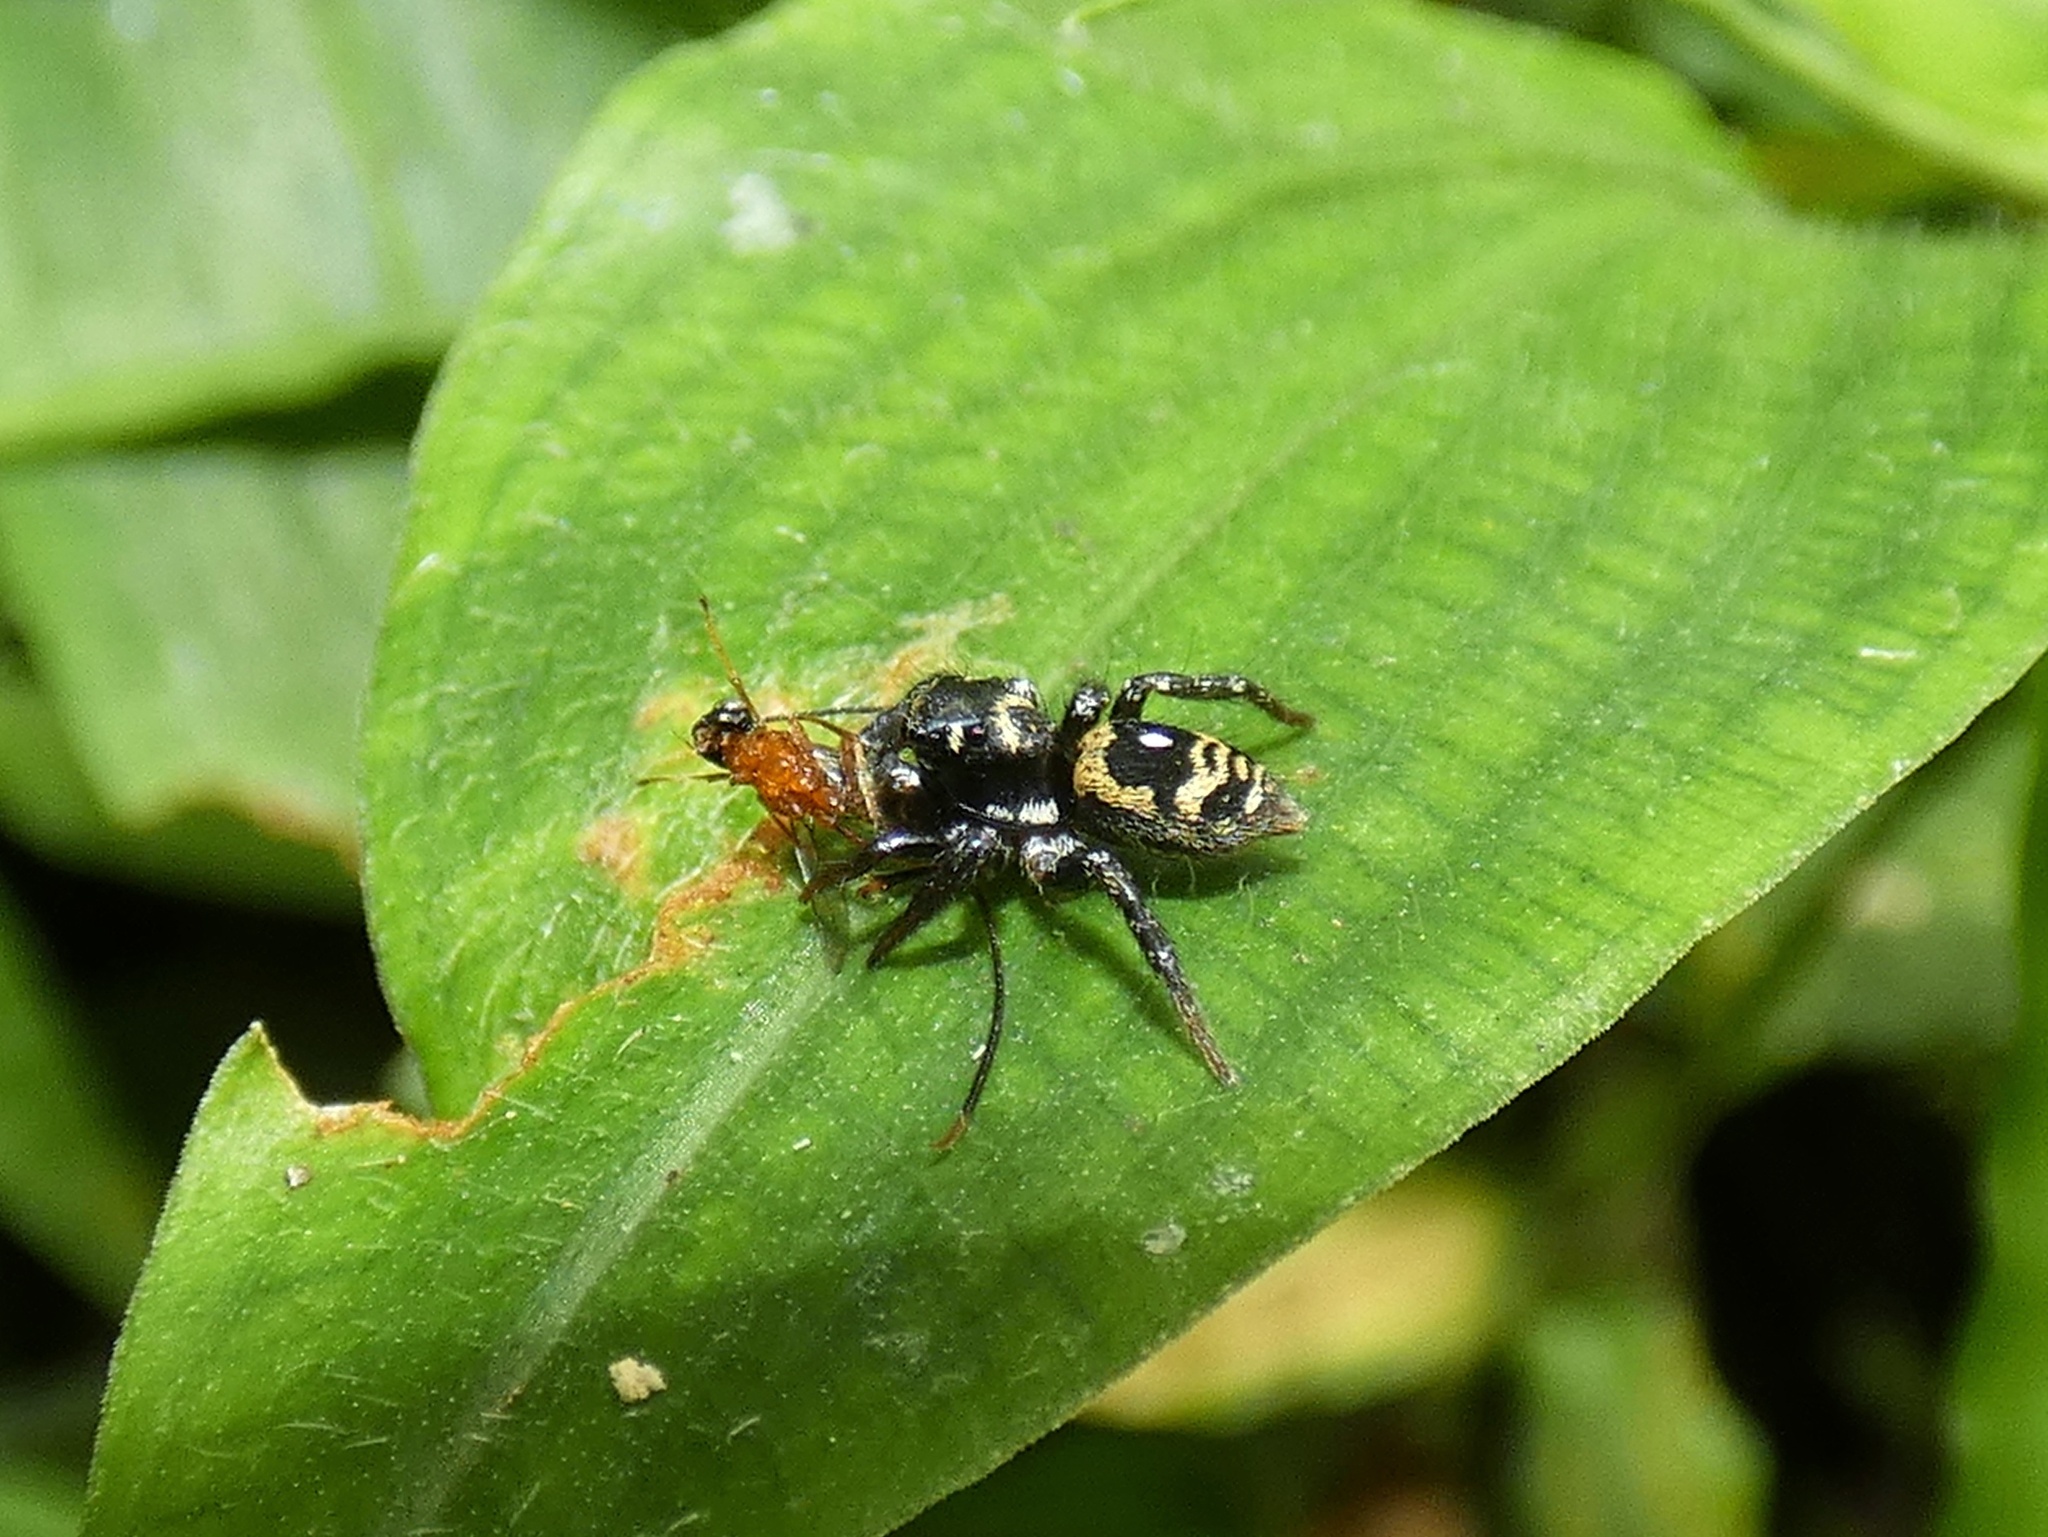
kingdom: Animalia
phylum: Arthropoda
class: Arachnida
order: Araneae
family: Salticidae
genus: Corythalia
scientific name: Corythalia bicincta
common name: Jumping spiders
